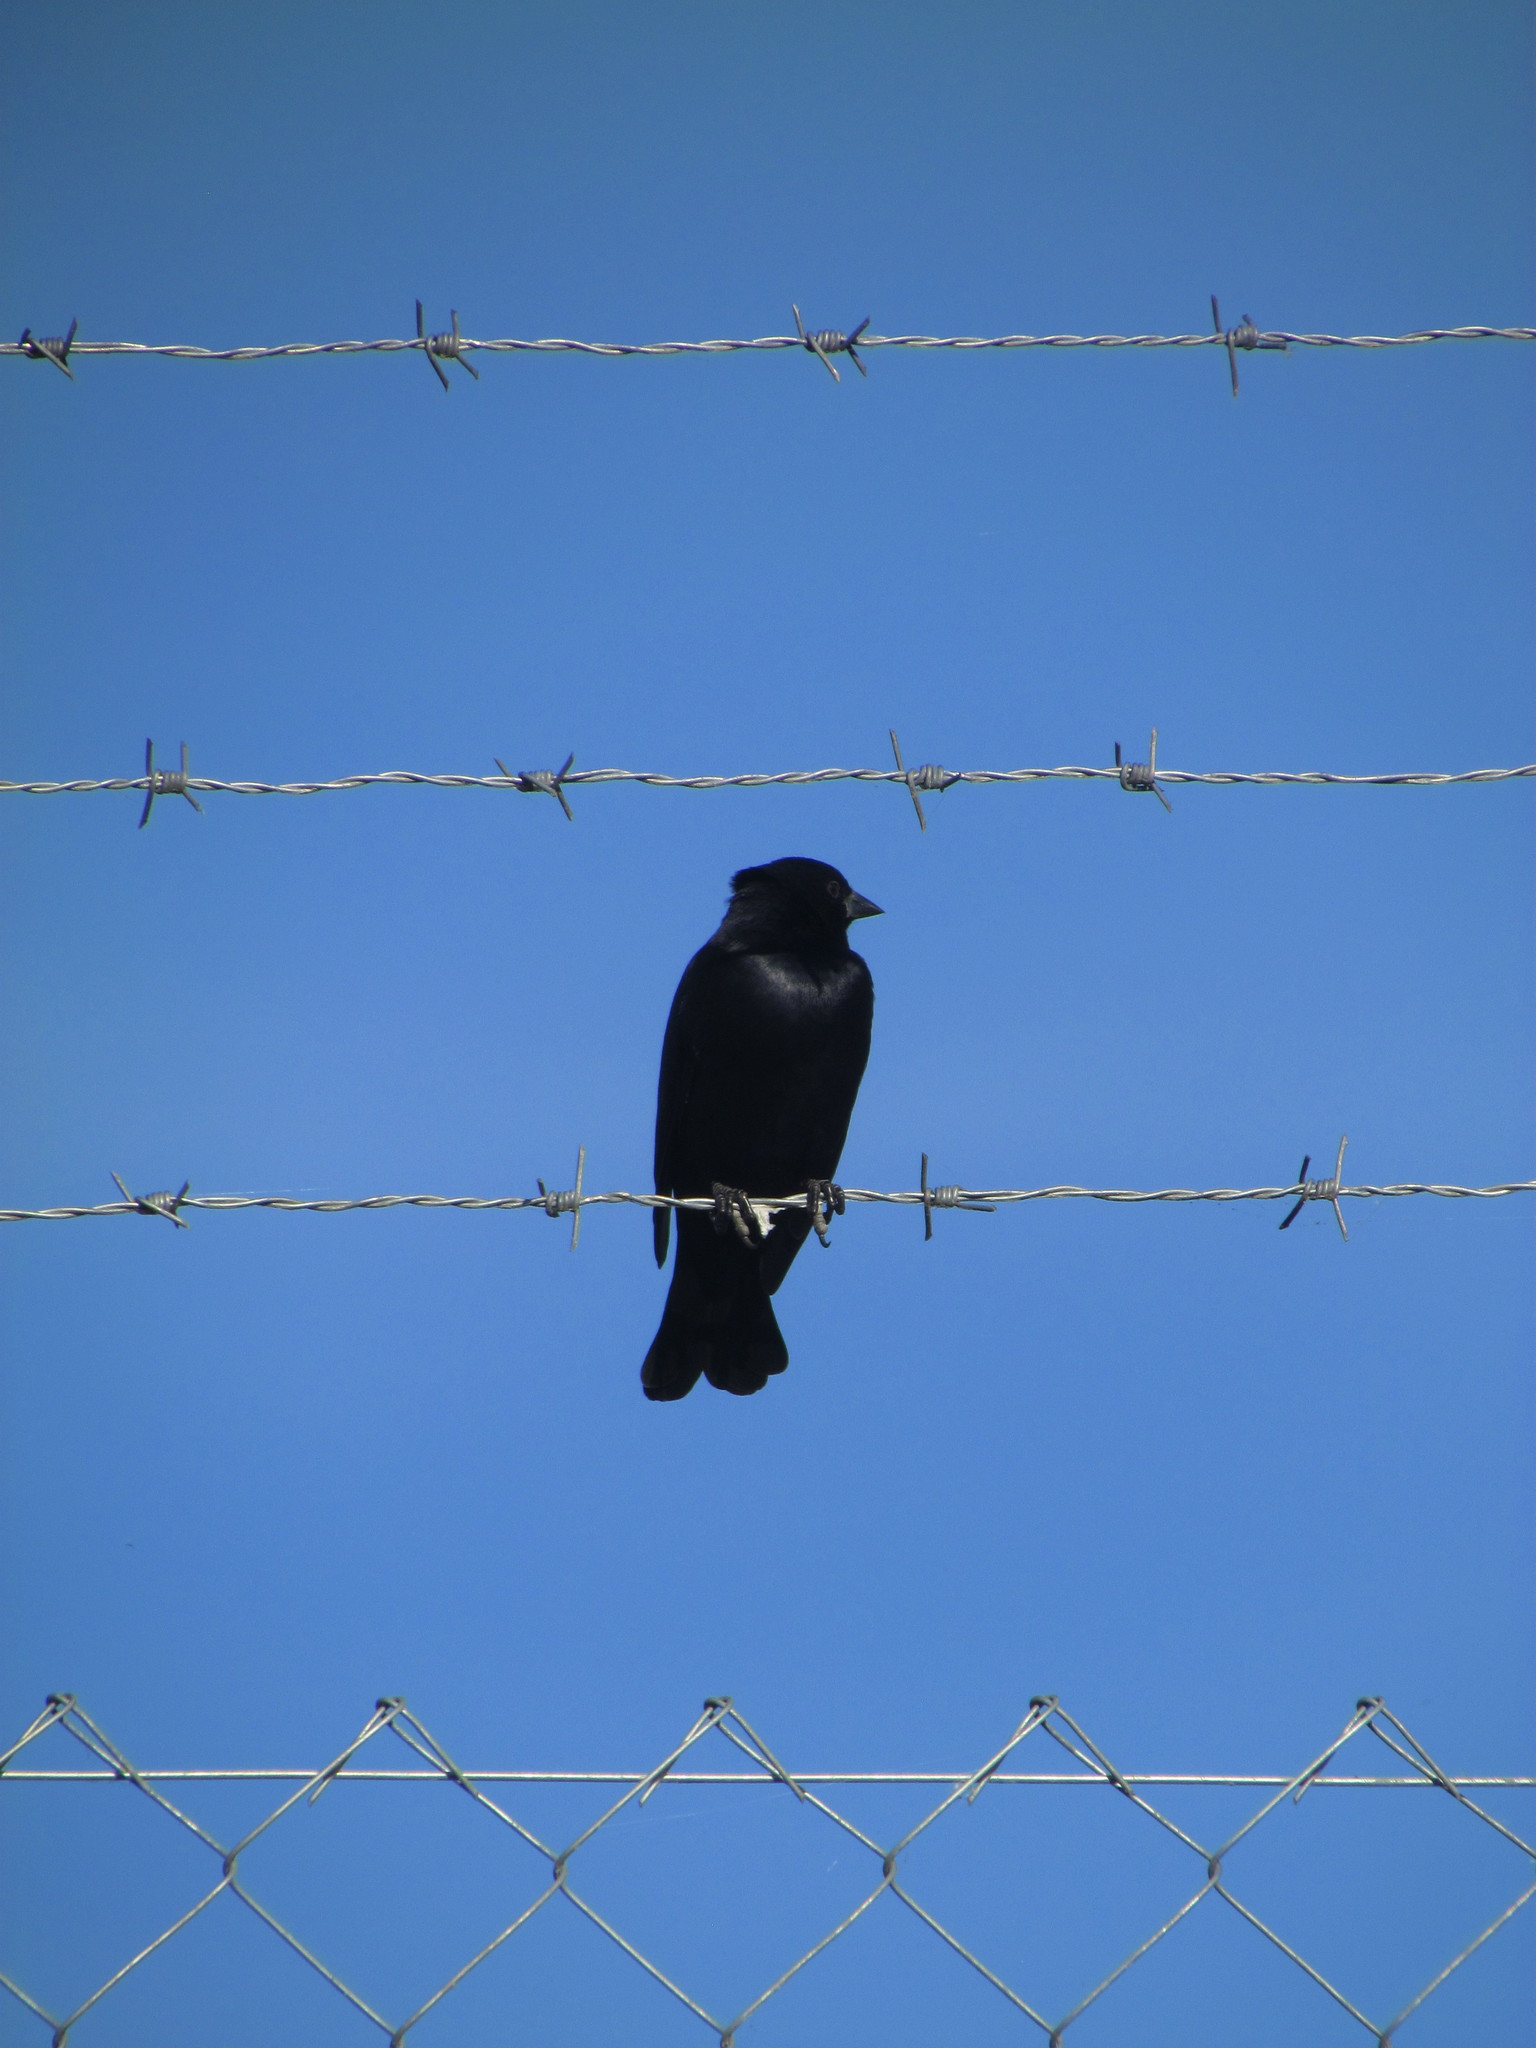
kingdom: Animalia
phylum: Chordata
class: Aves
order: Passeriformes
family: Icteridae
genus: Molothrus
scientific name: Molothrus rufoaxillaris
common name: Screaming cowbird
